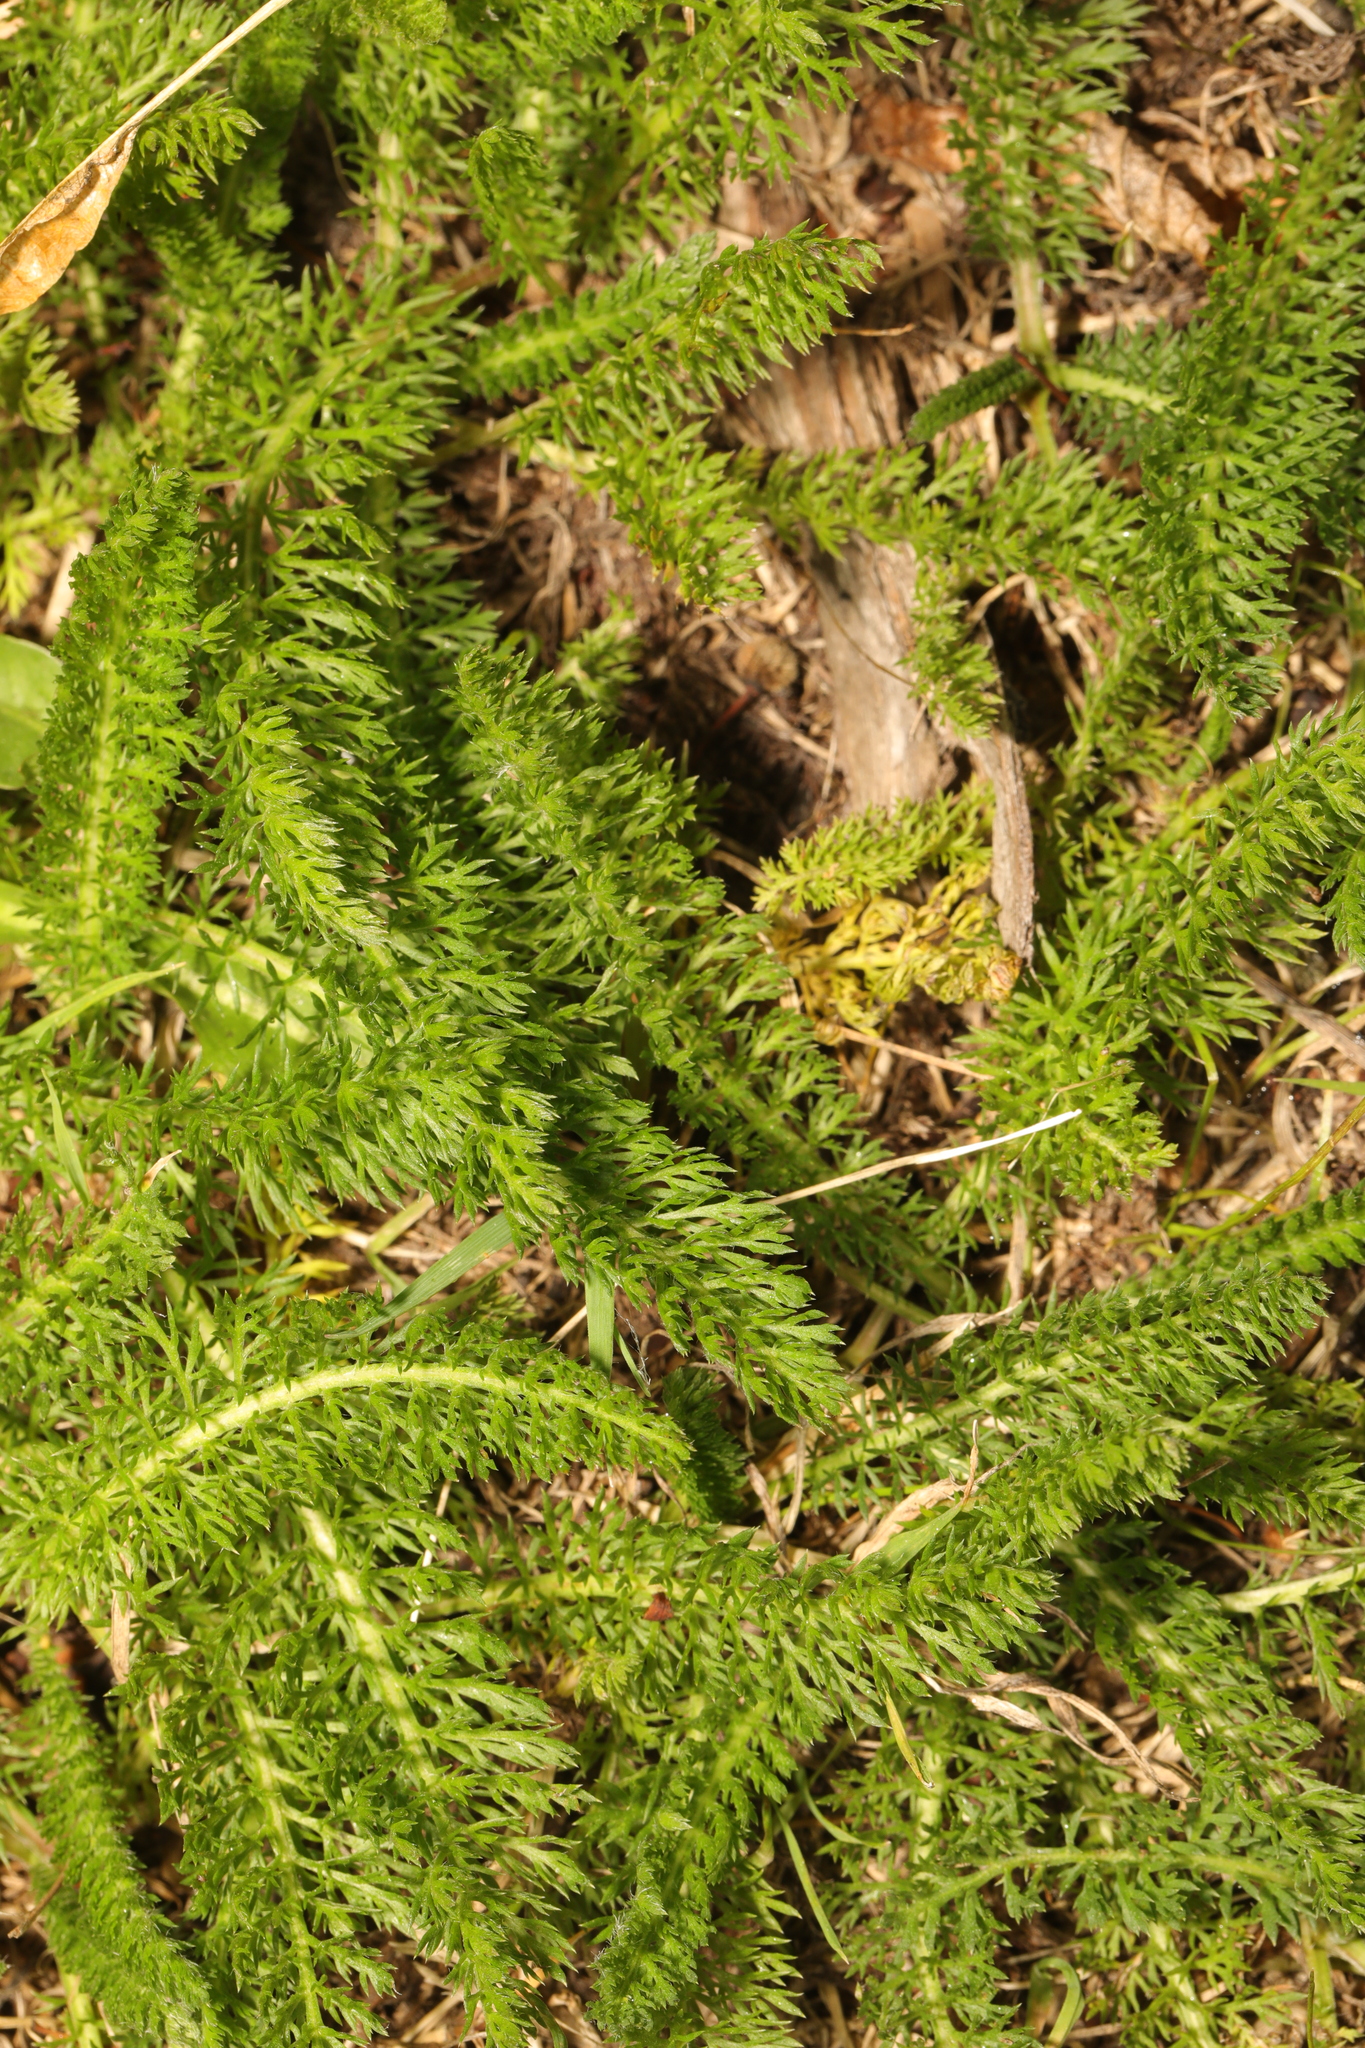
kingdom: Plantae
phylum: Tracheophyta
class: Magnoliopsida
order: Asterales
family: Asteraceae
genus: Achillea
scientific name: Achillea millefolium
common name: Yarrow
